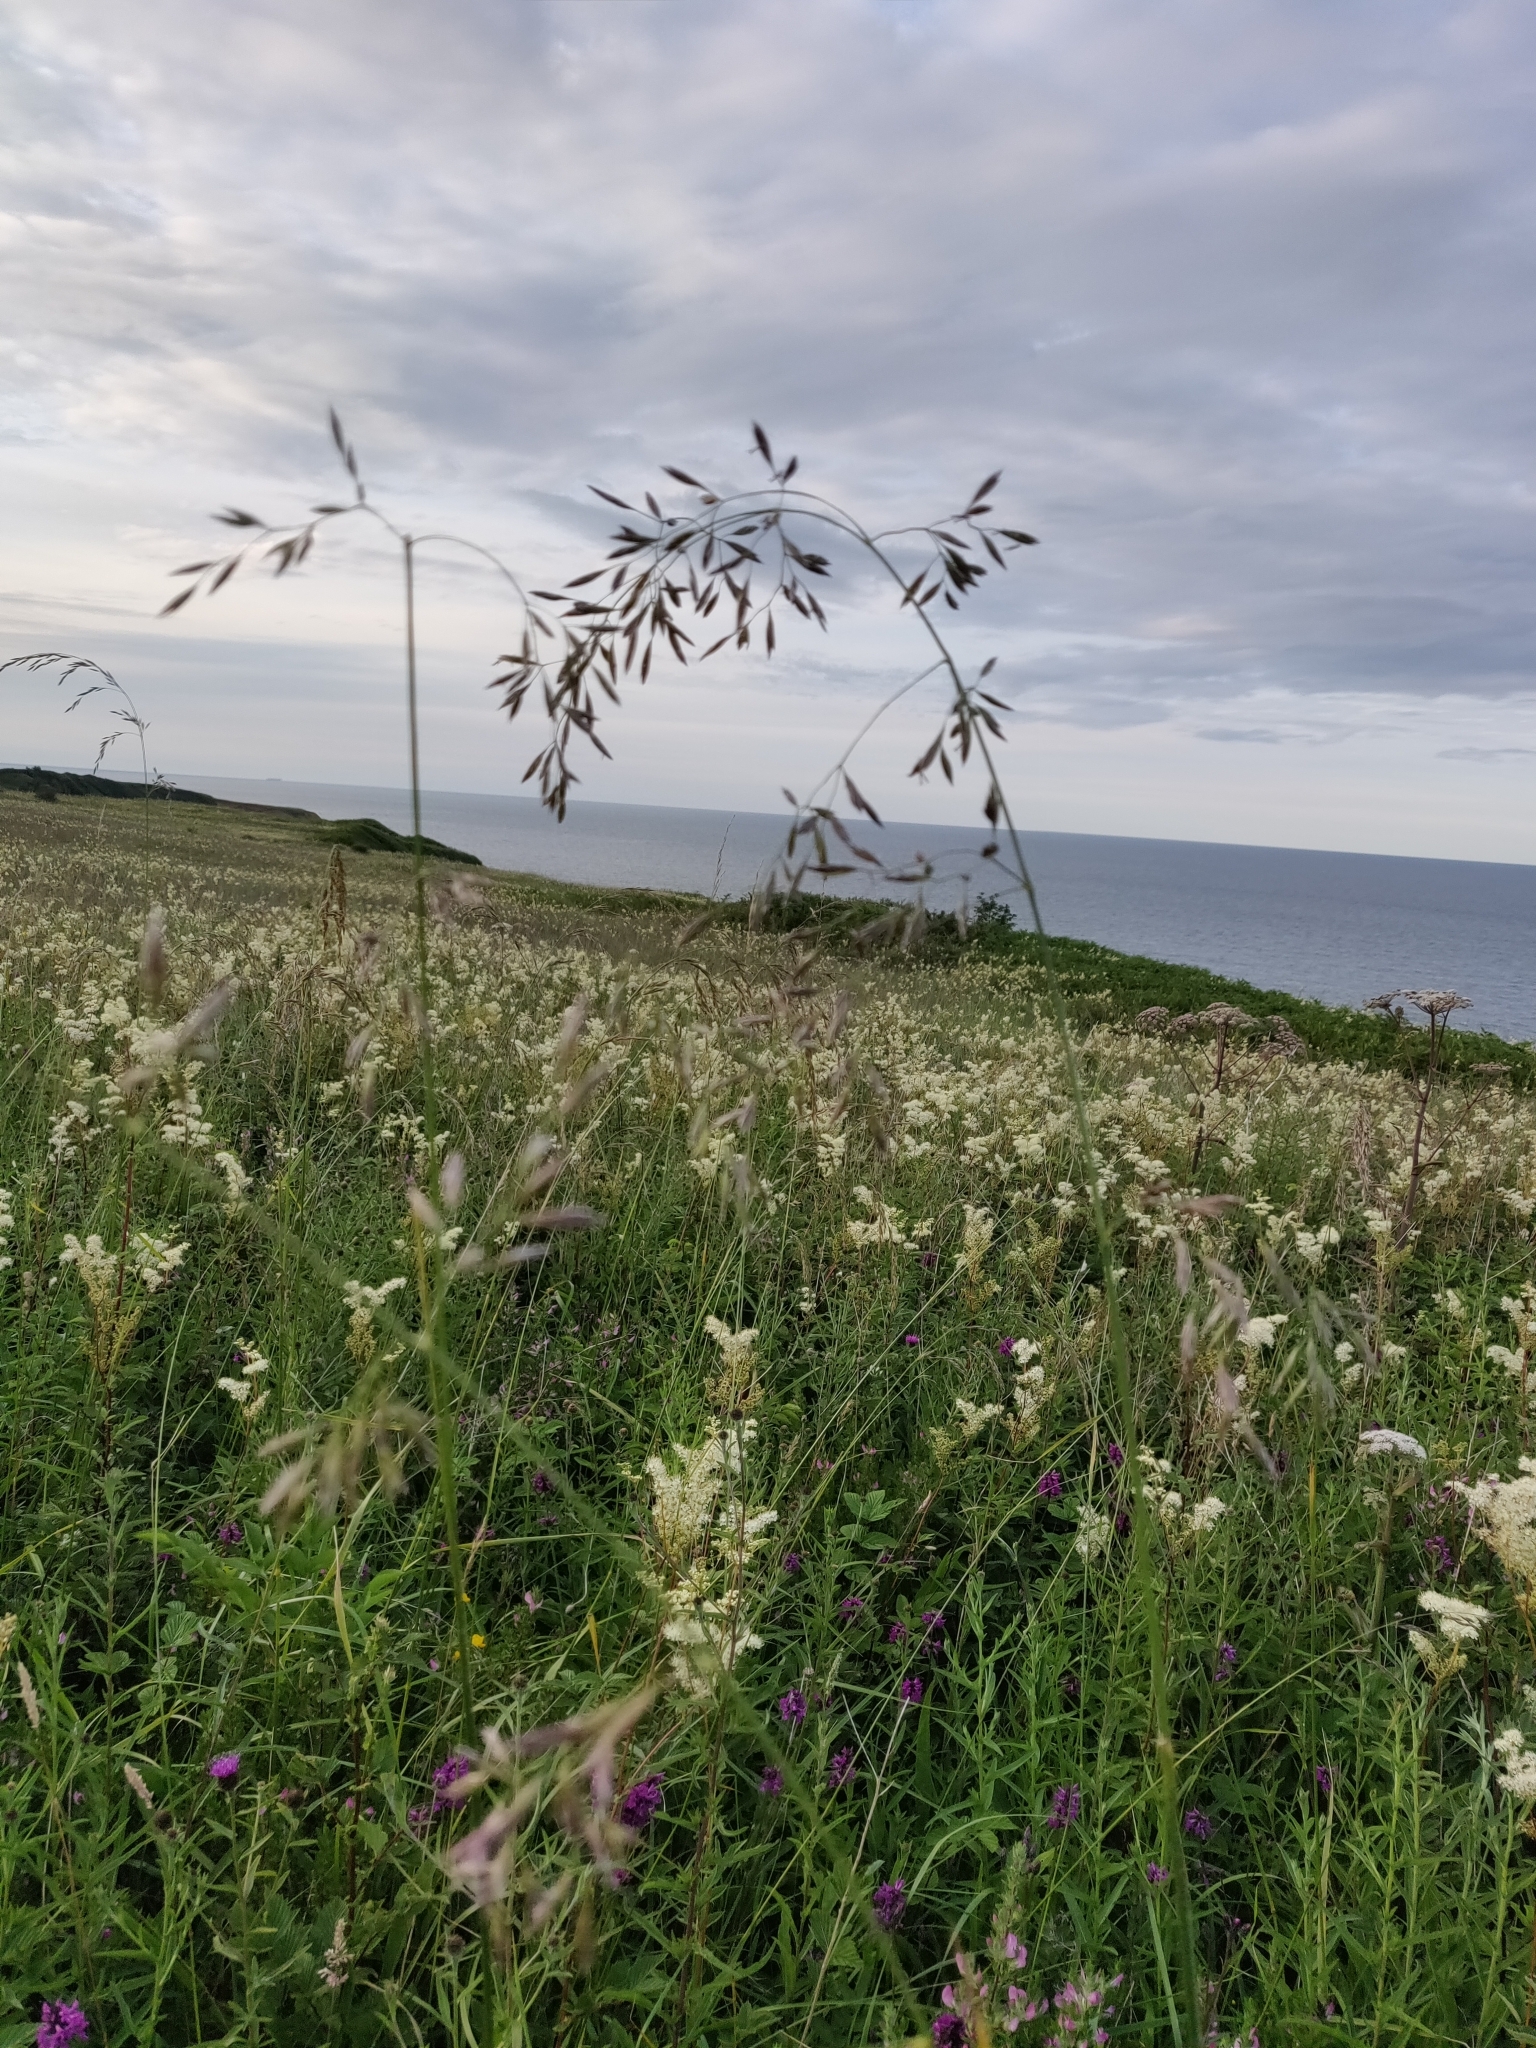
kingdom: Plantae
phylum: Tracheophyta
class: Liliopsida
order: Poales
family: Poaceae
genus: Lolium
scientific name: Lolium arundinaceum
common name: Reed fescue
